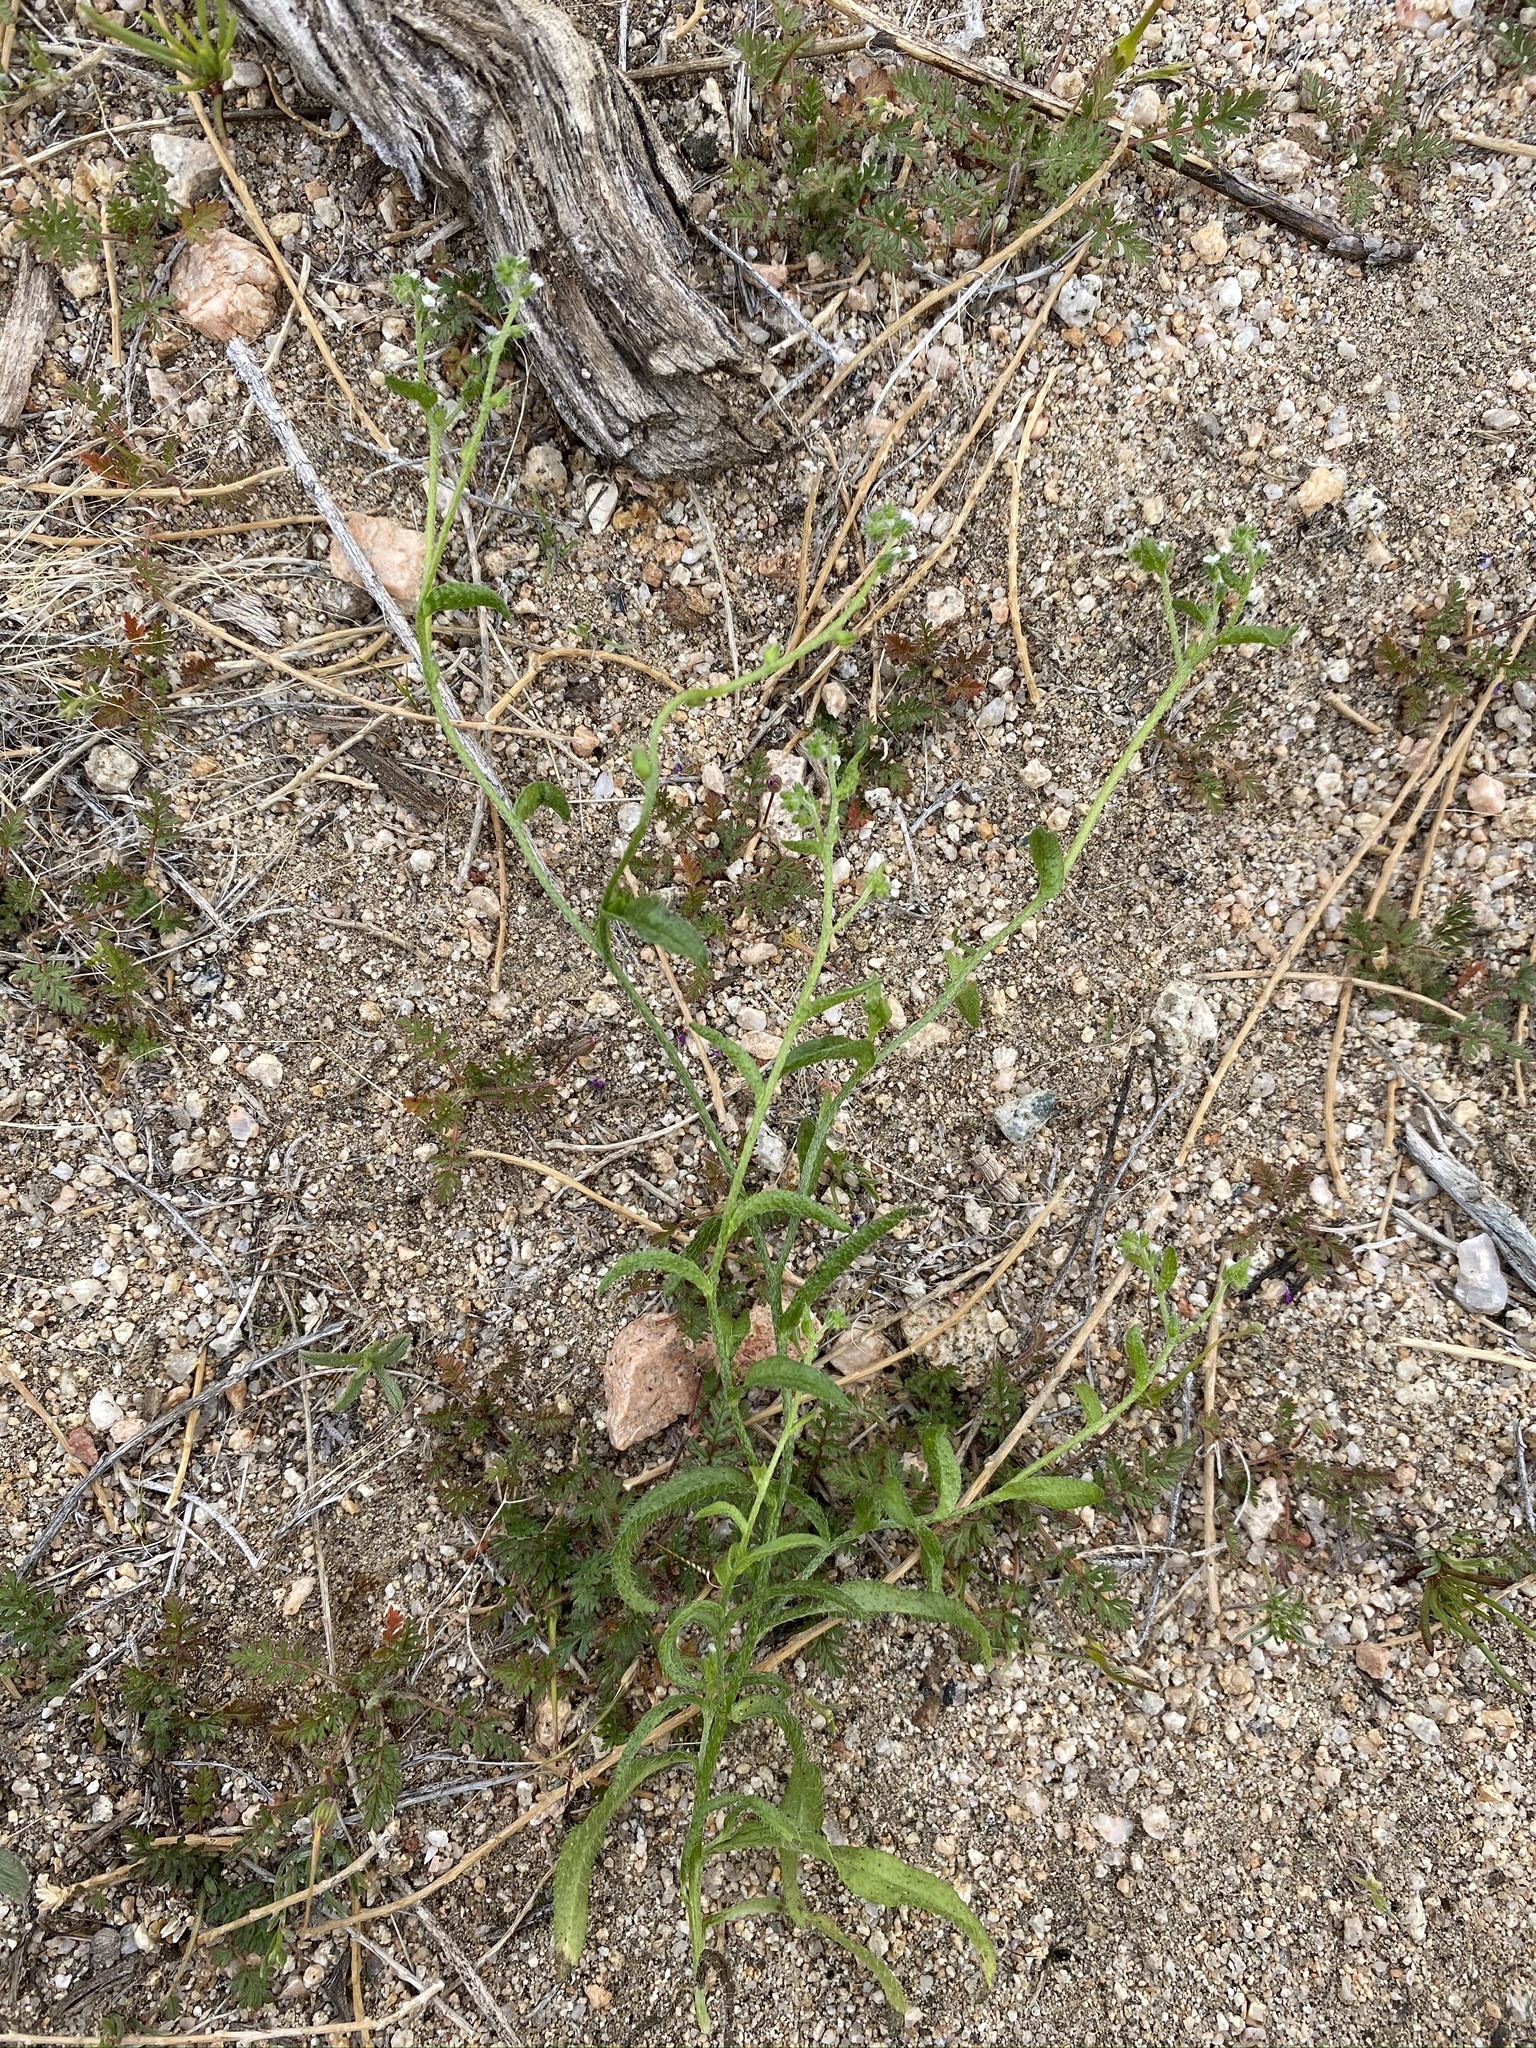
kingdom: Plantae
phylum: Tracheophyta
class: Magnoliopsida
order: Boraginales
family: Boraginaceae
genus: Cryptantha
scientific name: Cryptantha dumetorum
